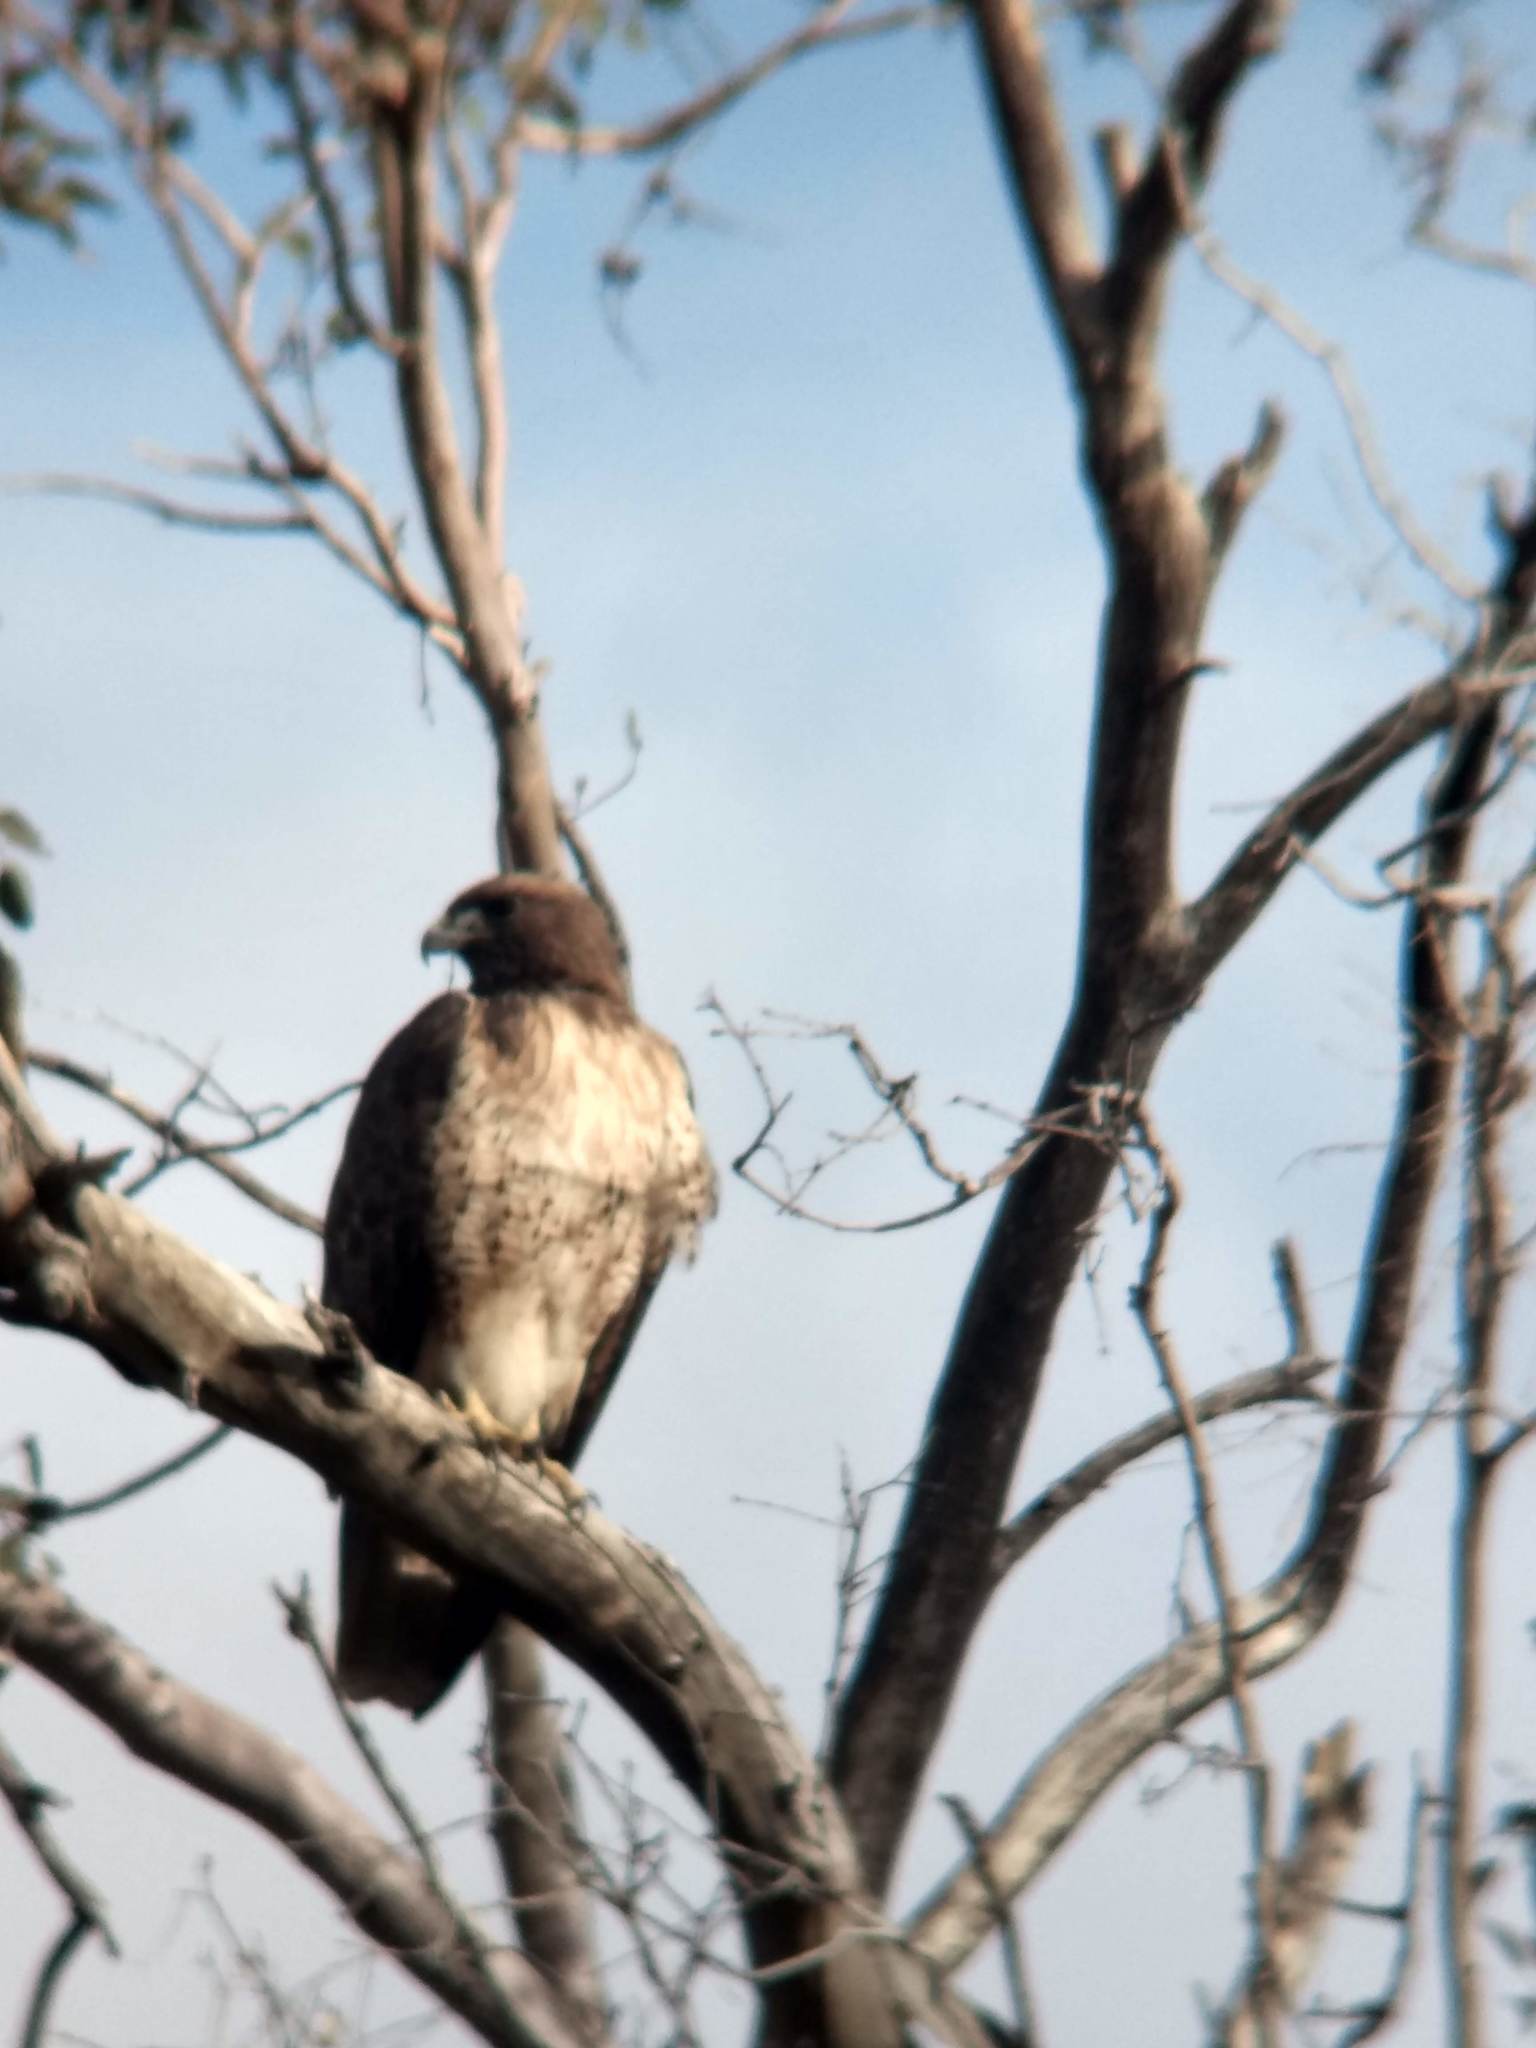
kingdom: Animalia
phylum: Chordata
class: Aves
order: Accipitriformes
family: Accipitridae
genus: Buteo
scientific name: Buteo jamaicensis
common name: Red-tailed hawk
